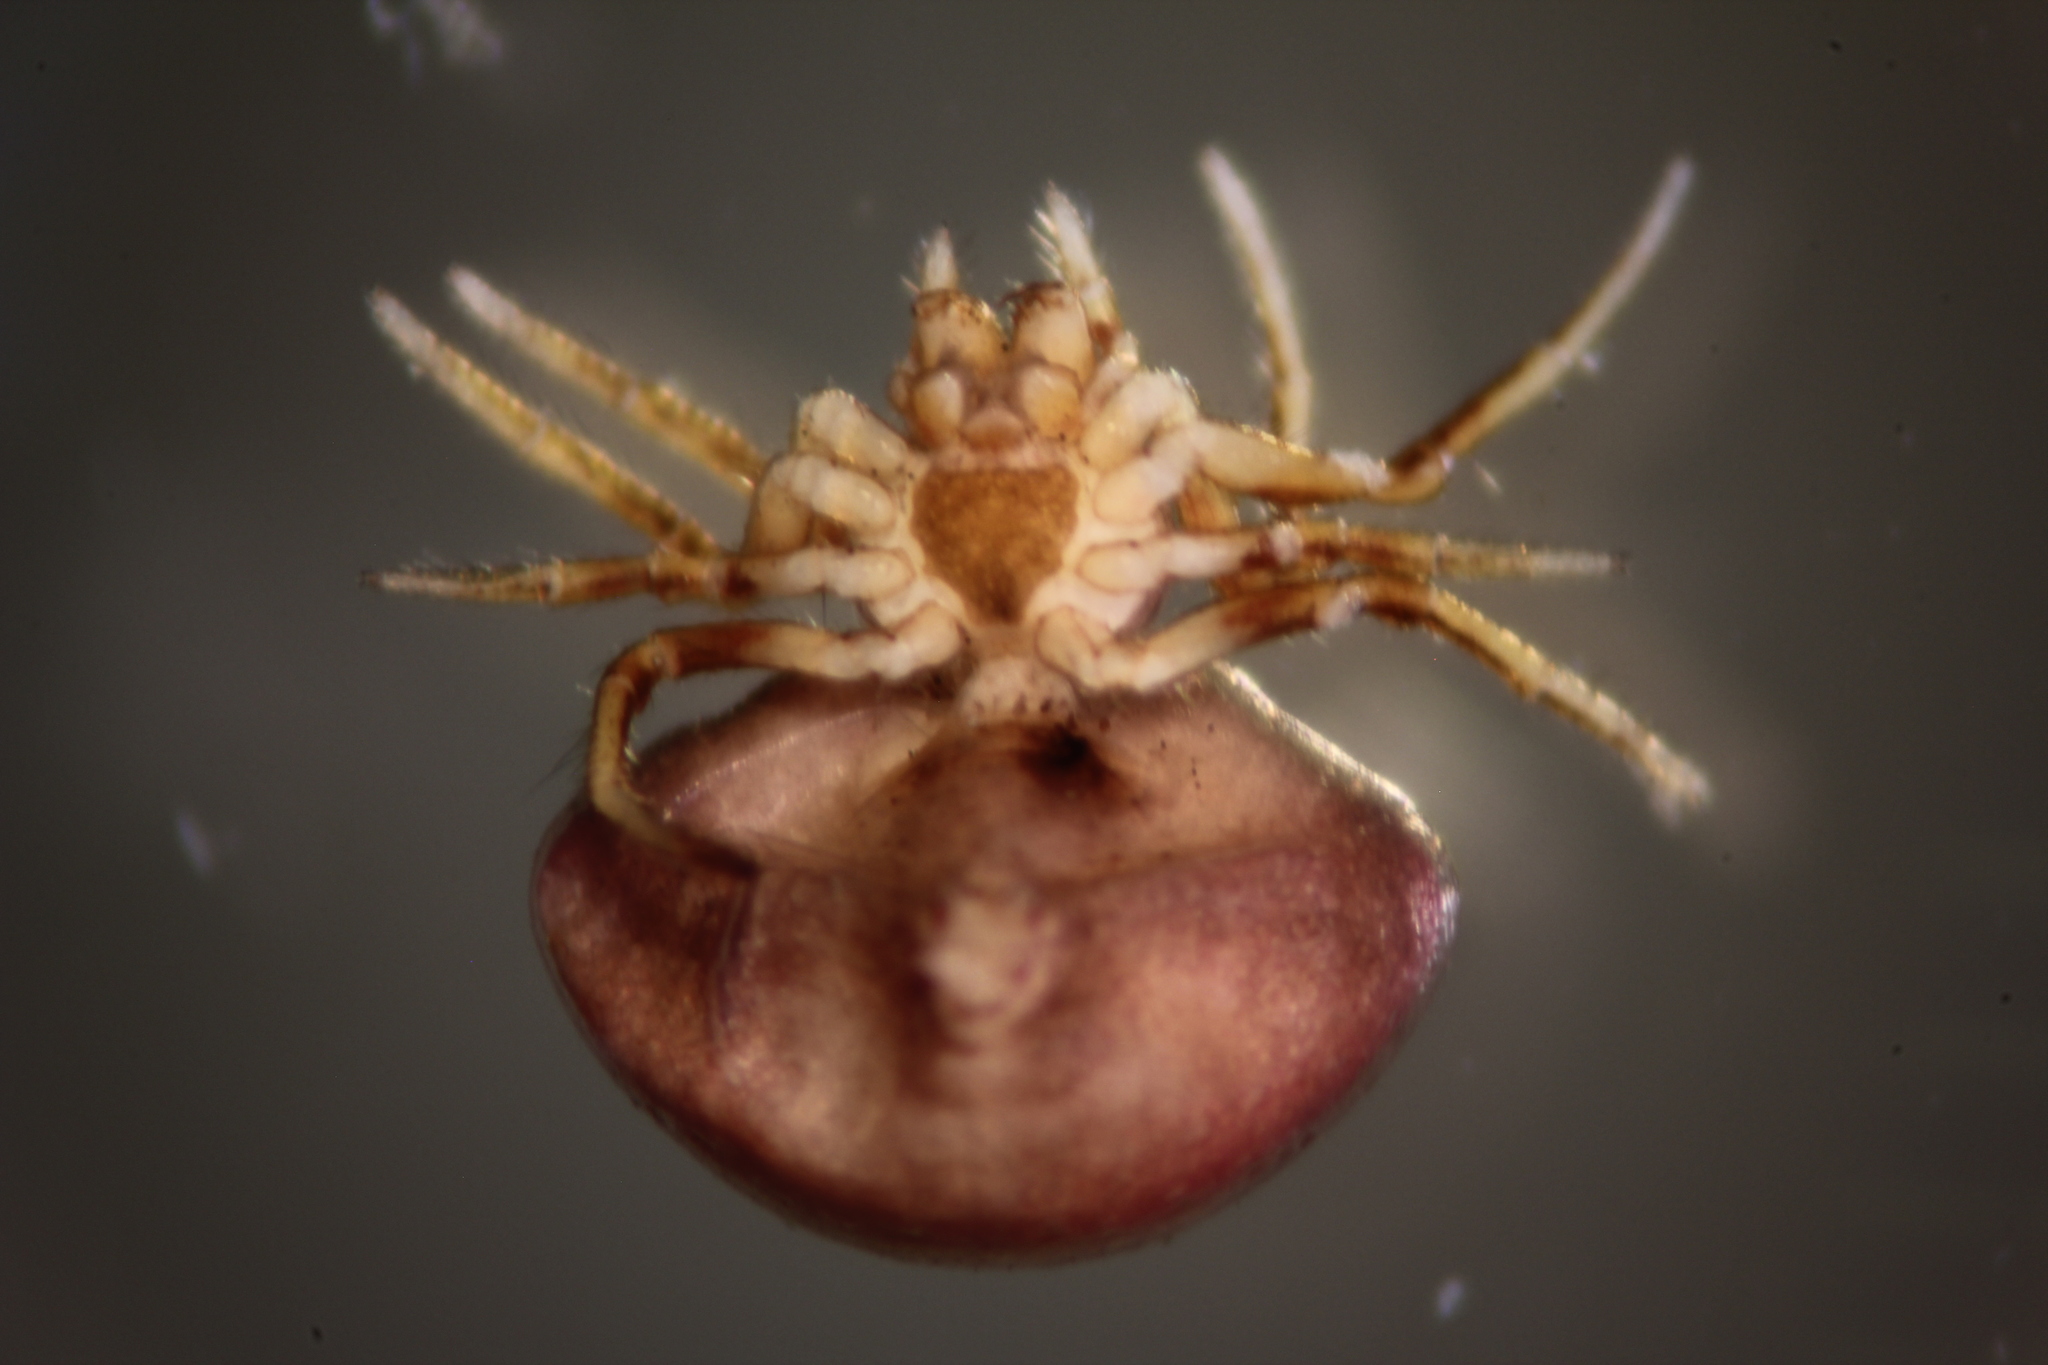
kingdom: Animalia
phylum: Arthropoda
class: Arachnida
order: Araneae
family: Araneidae
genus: Cyrtarachne
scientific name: Cyrtarachne nagasakiensis
